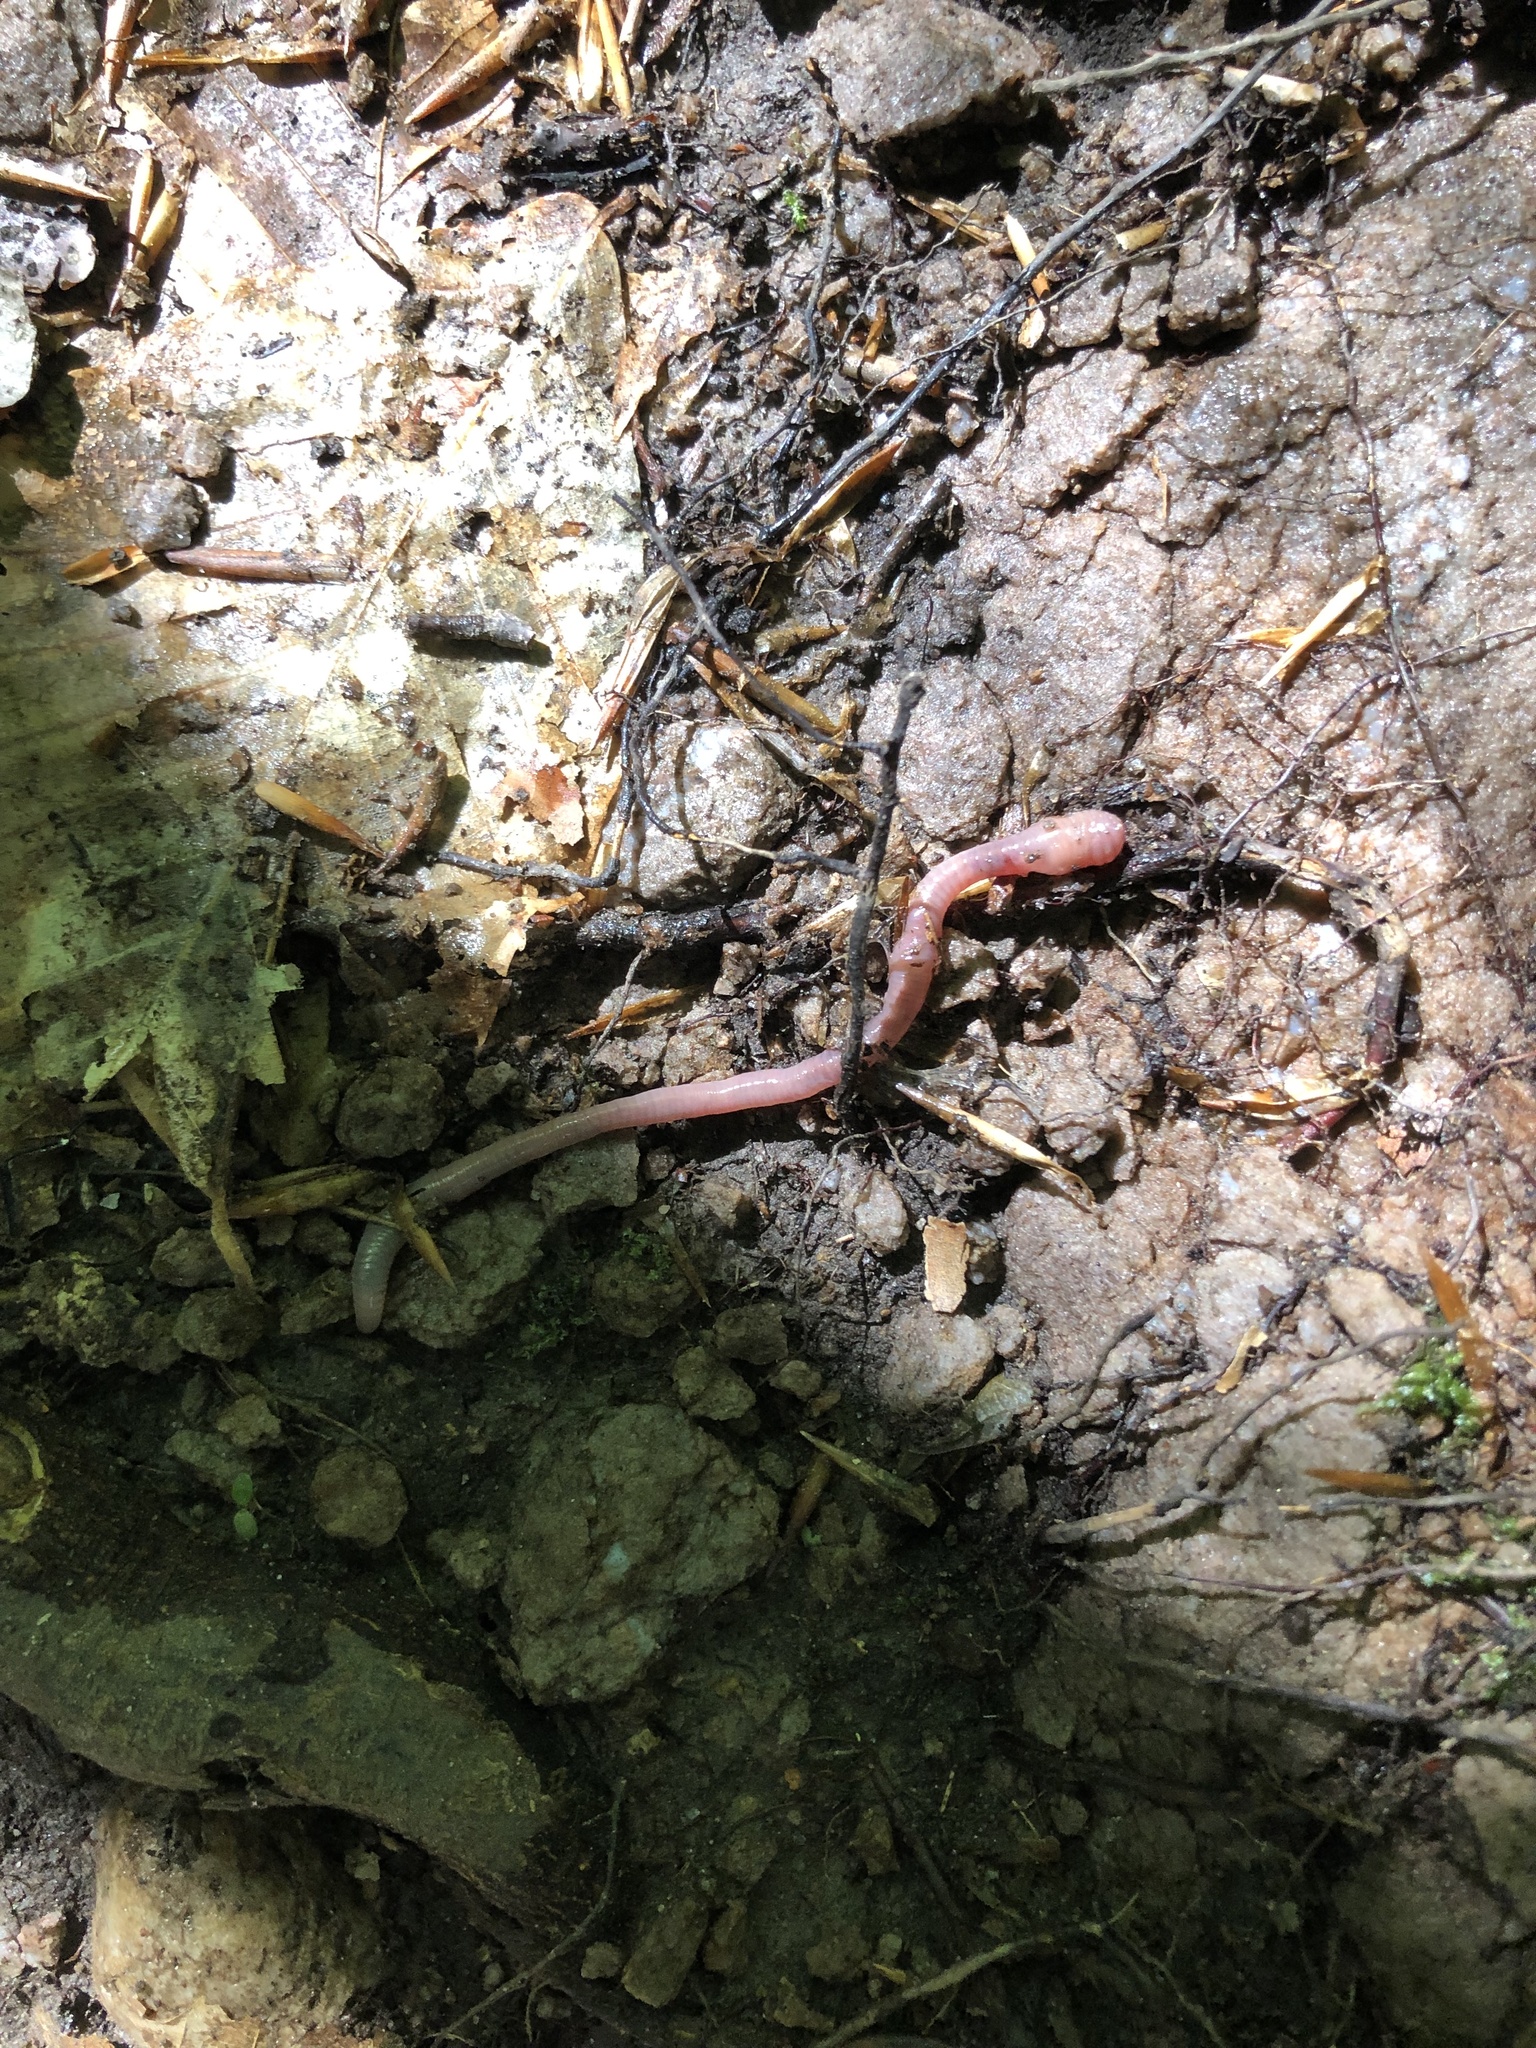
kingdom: Animalia
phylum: Annelida
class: Clitellata
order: Crassiclitellata
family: Lumbricidae
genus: Lumbricus
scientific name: Lumbricus terrestris
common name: Common earthworm
